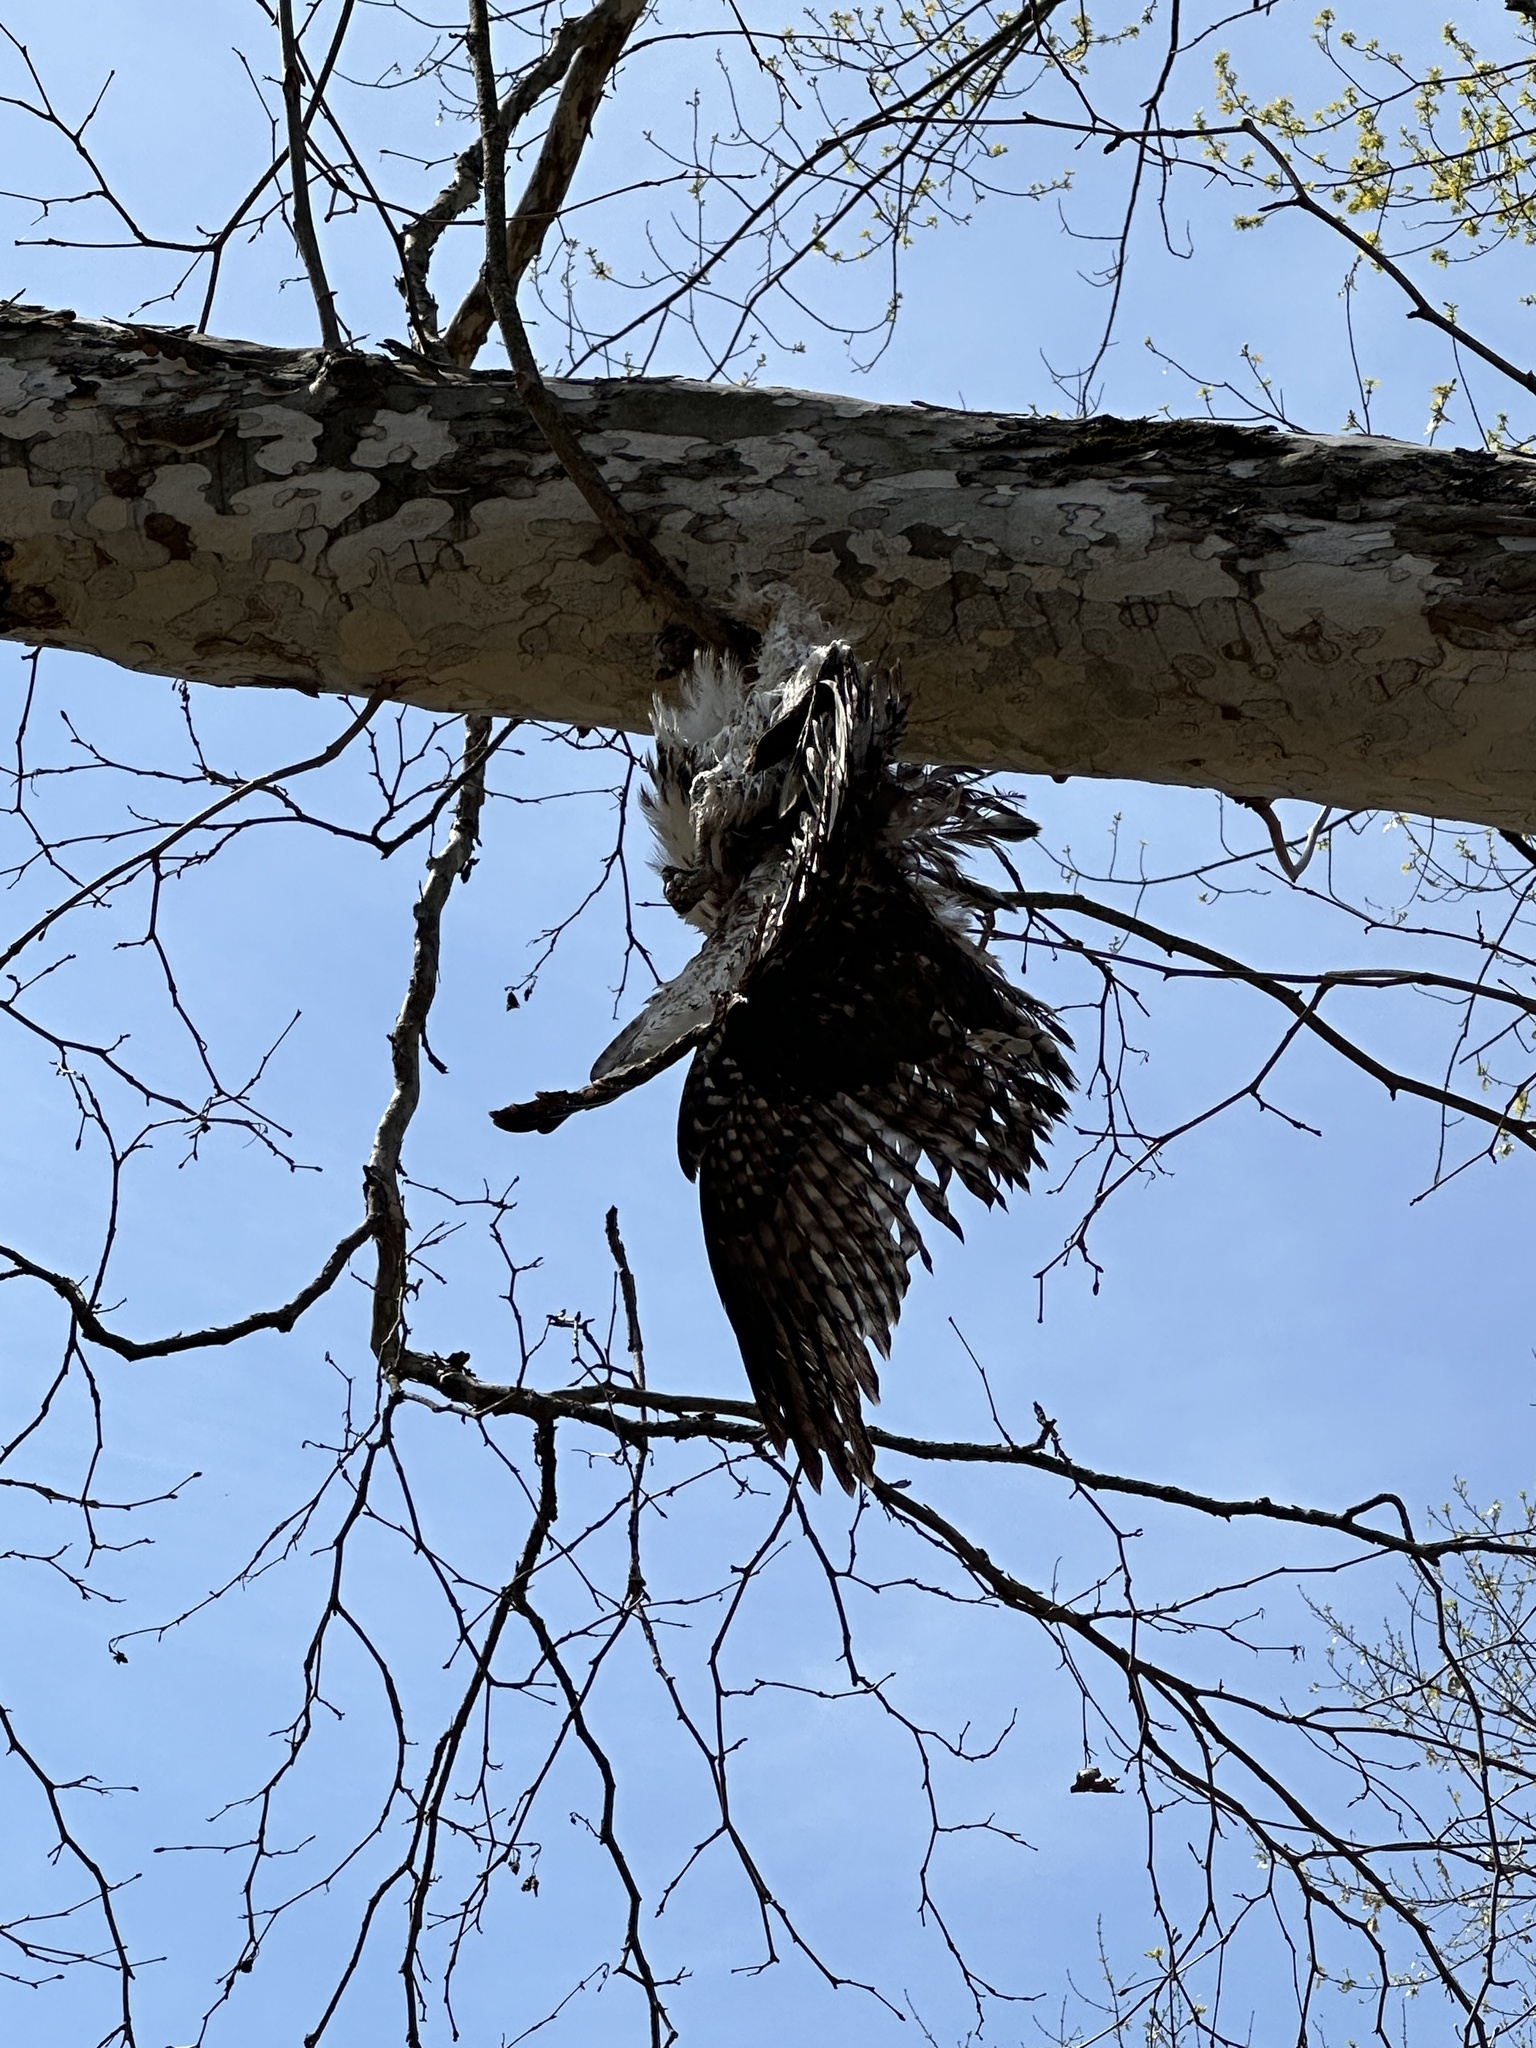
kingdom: Animalia
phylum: Chordata
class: Aves
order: Accipitriformes
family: Accipitridae
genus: Buteo
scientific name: Buteo jamaicensis
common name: Red-tailed hawk
